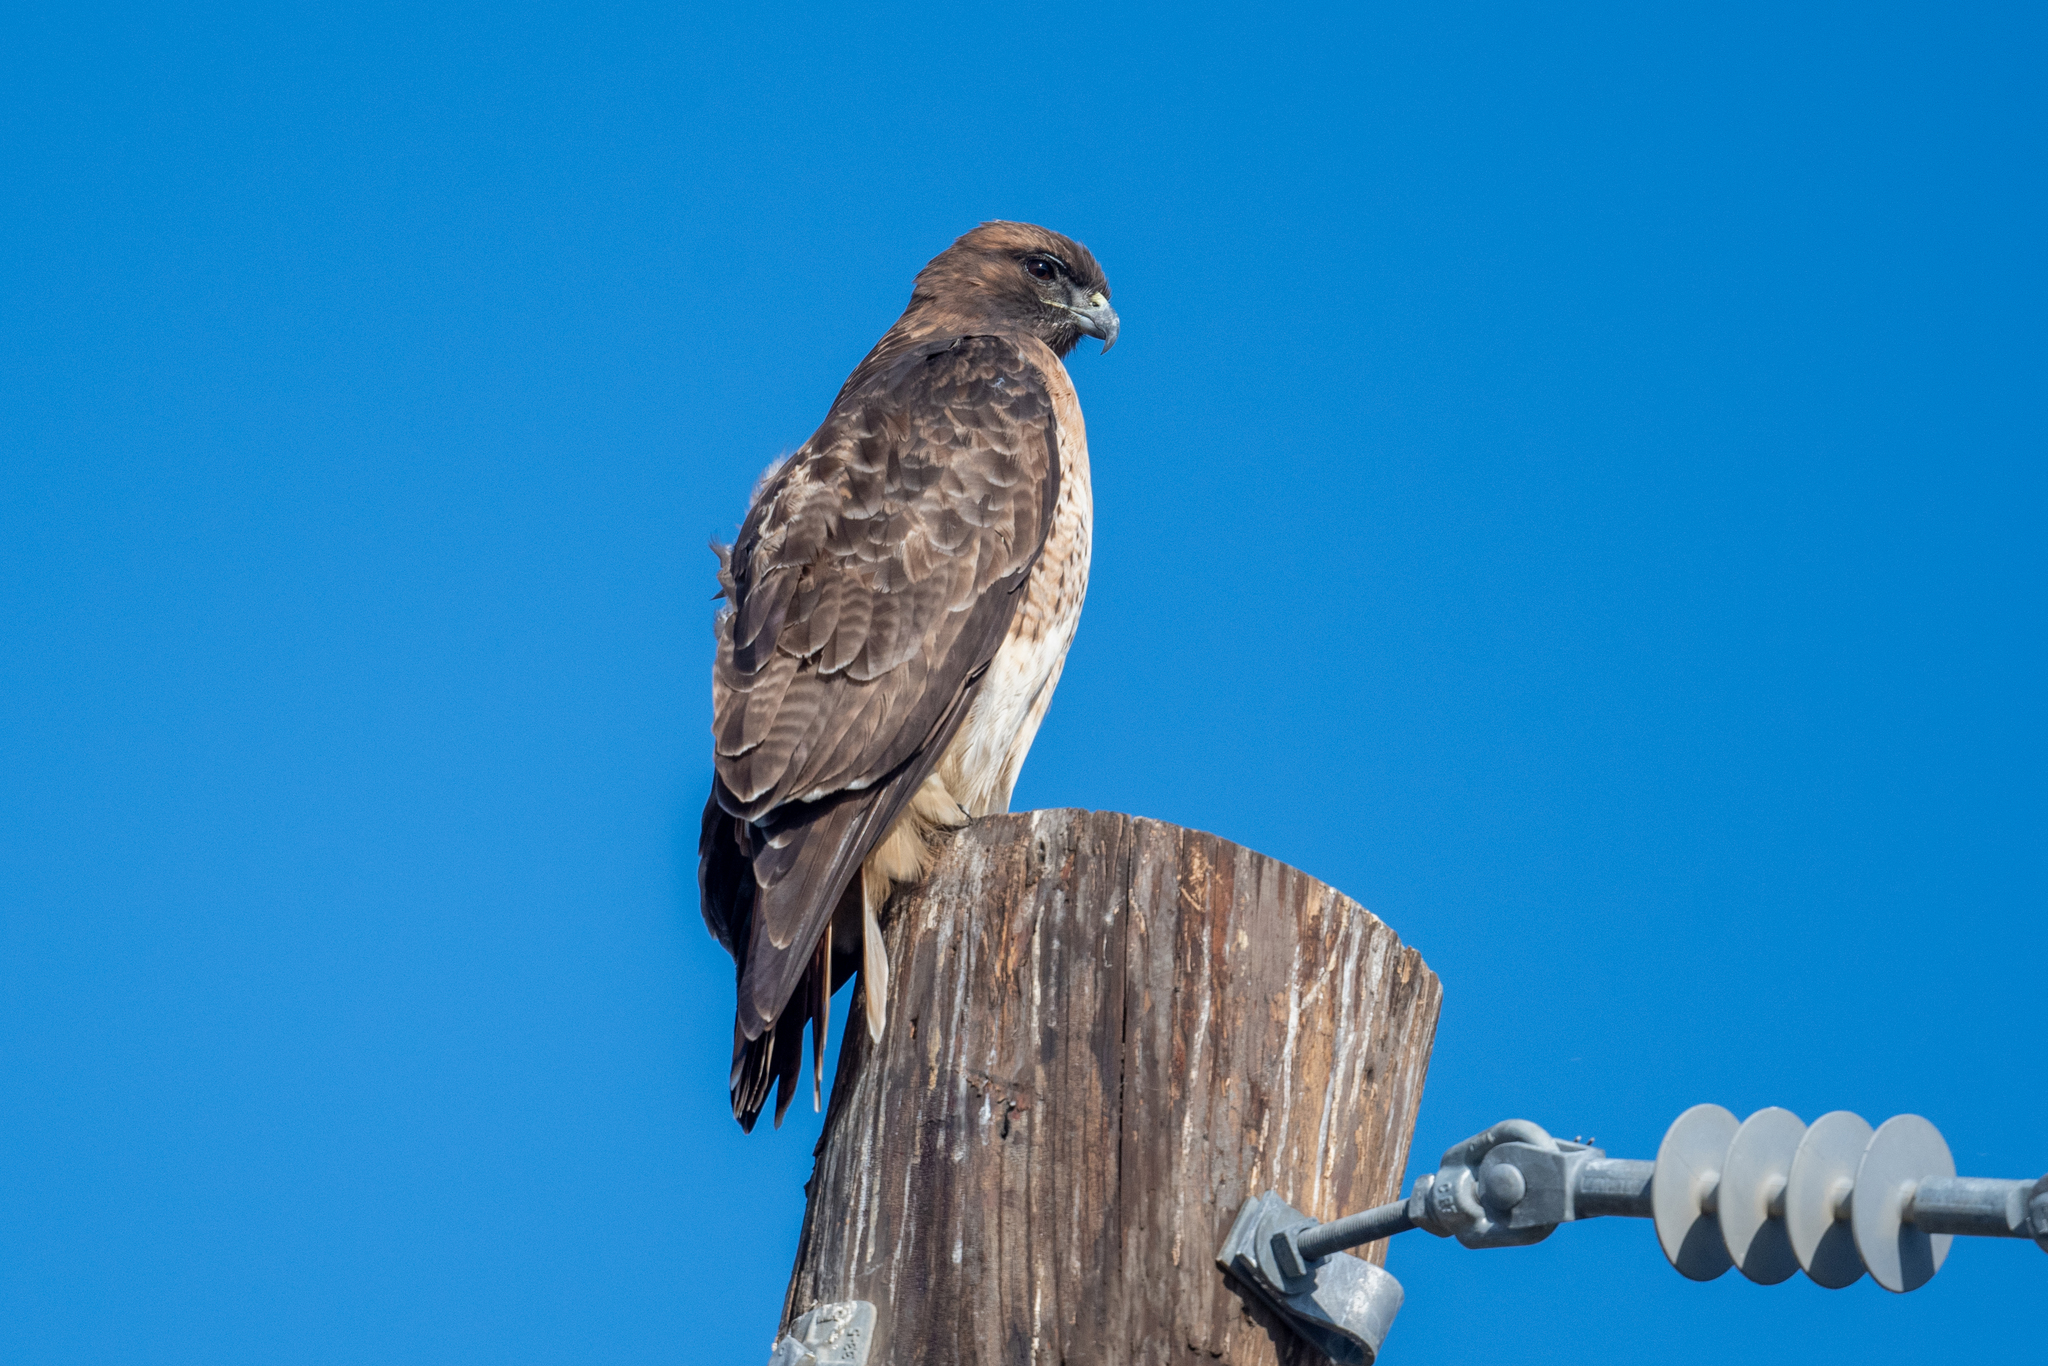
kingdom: Animalia
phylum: Chordata
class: Aves
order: Accipitriformes
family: Accipitridae
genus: Buteo
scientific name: Buteo jamaicensis
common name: Red-tailed hawk
